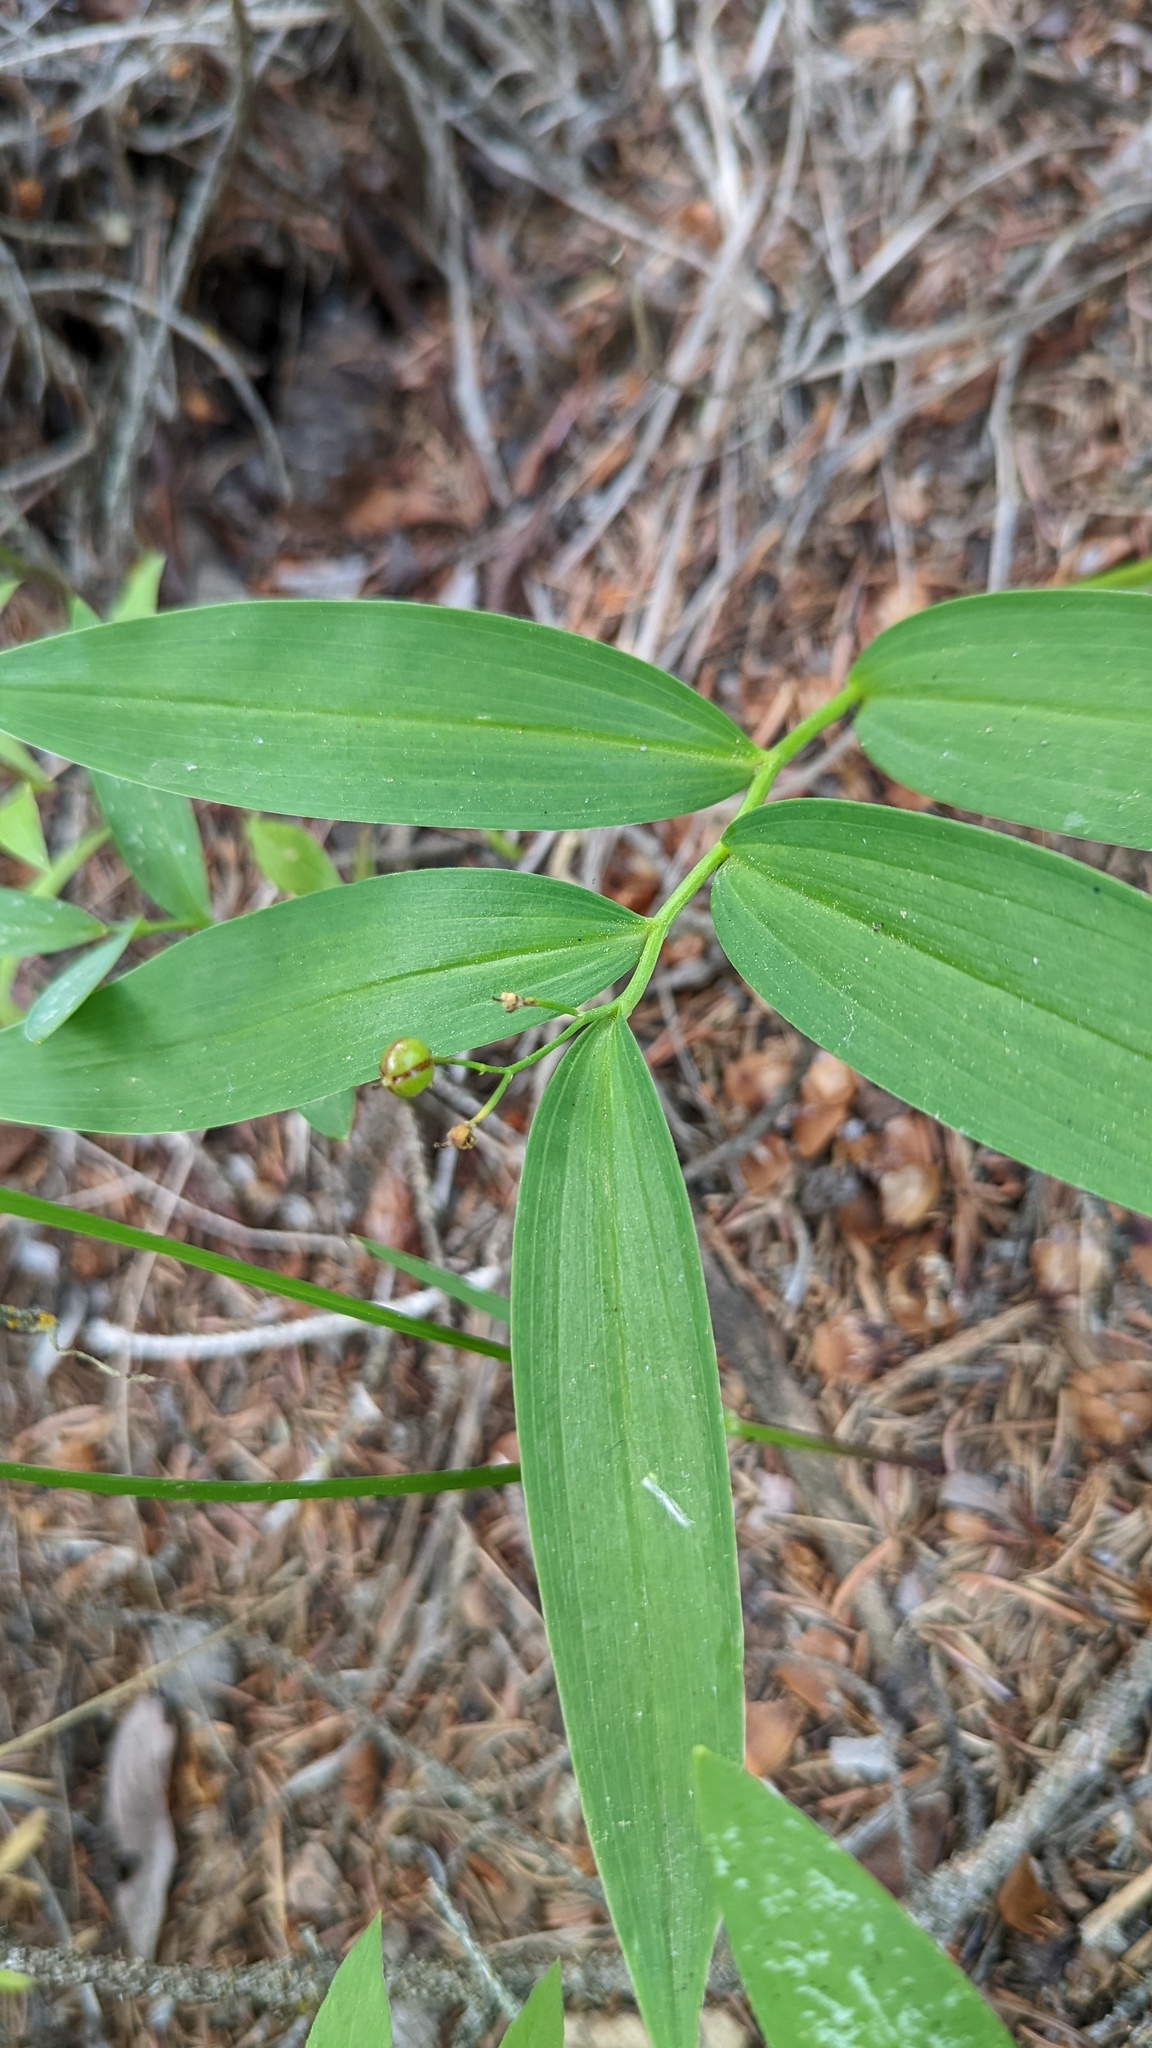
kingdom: Plantae
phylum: Tracheophyta
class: Liliopsida
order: Asparagales
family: Asparagaceae
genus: Maianthemum
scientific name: Maianthemum stellatum
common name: Little false solomon's seal
